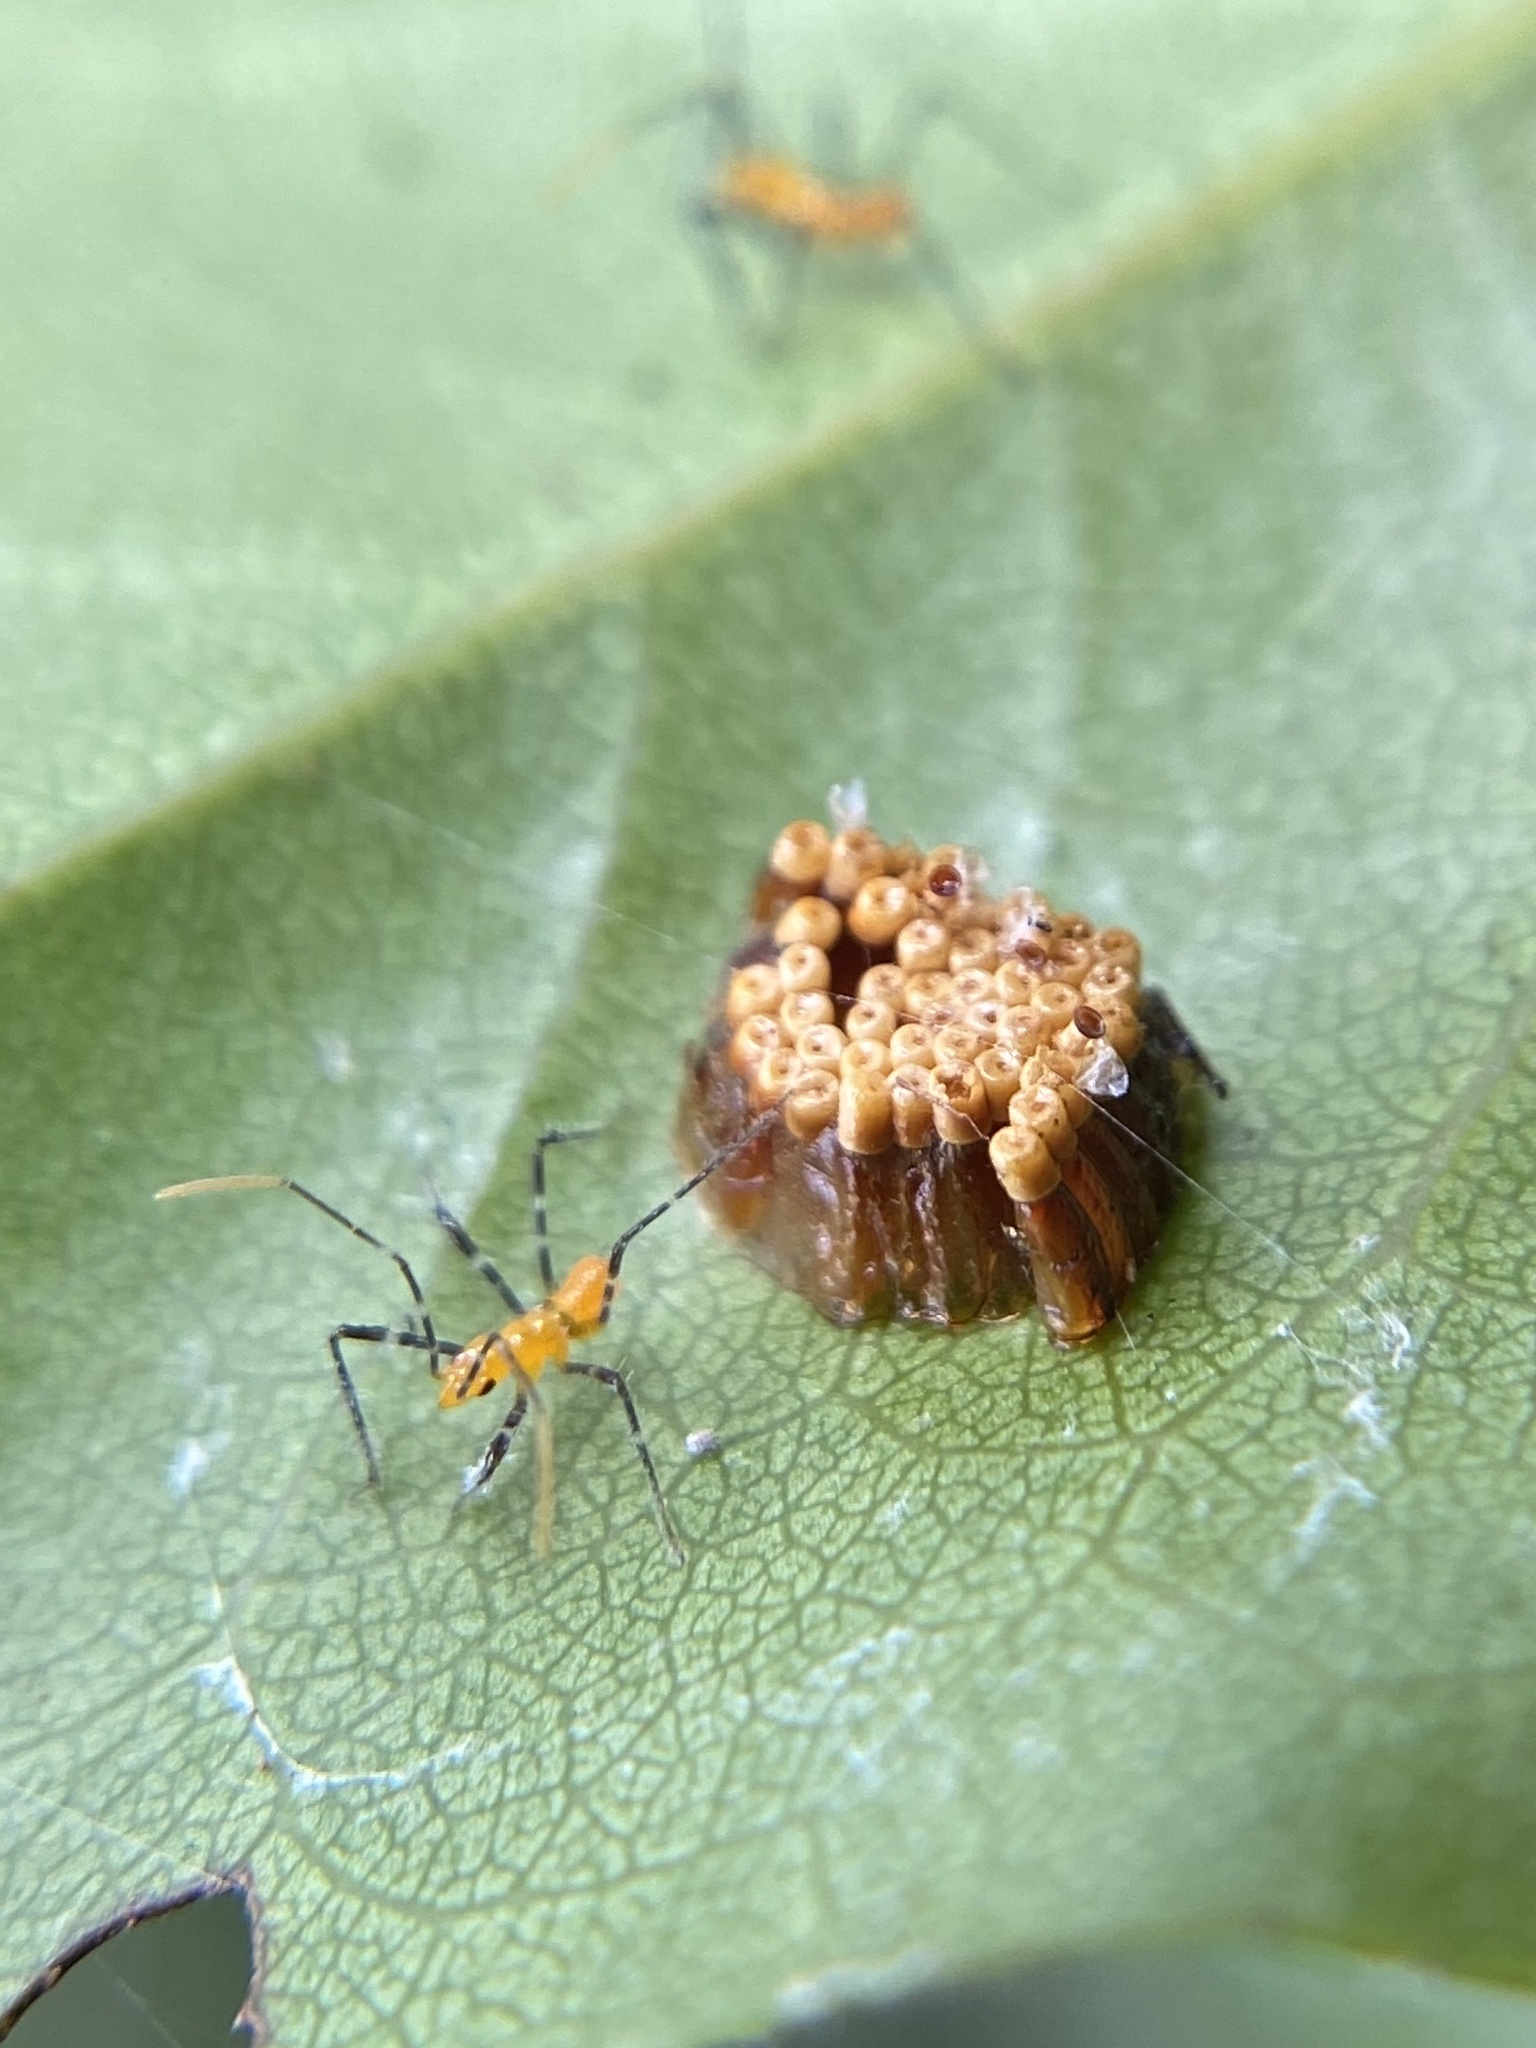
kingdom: Animalia
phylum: Arthropoda
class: Insecta
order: Hemiptera
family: Reduviidae
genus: Zelus
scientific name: Zelus longipes
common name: Milkweed assassin bug
